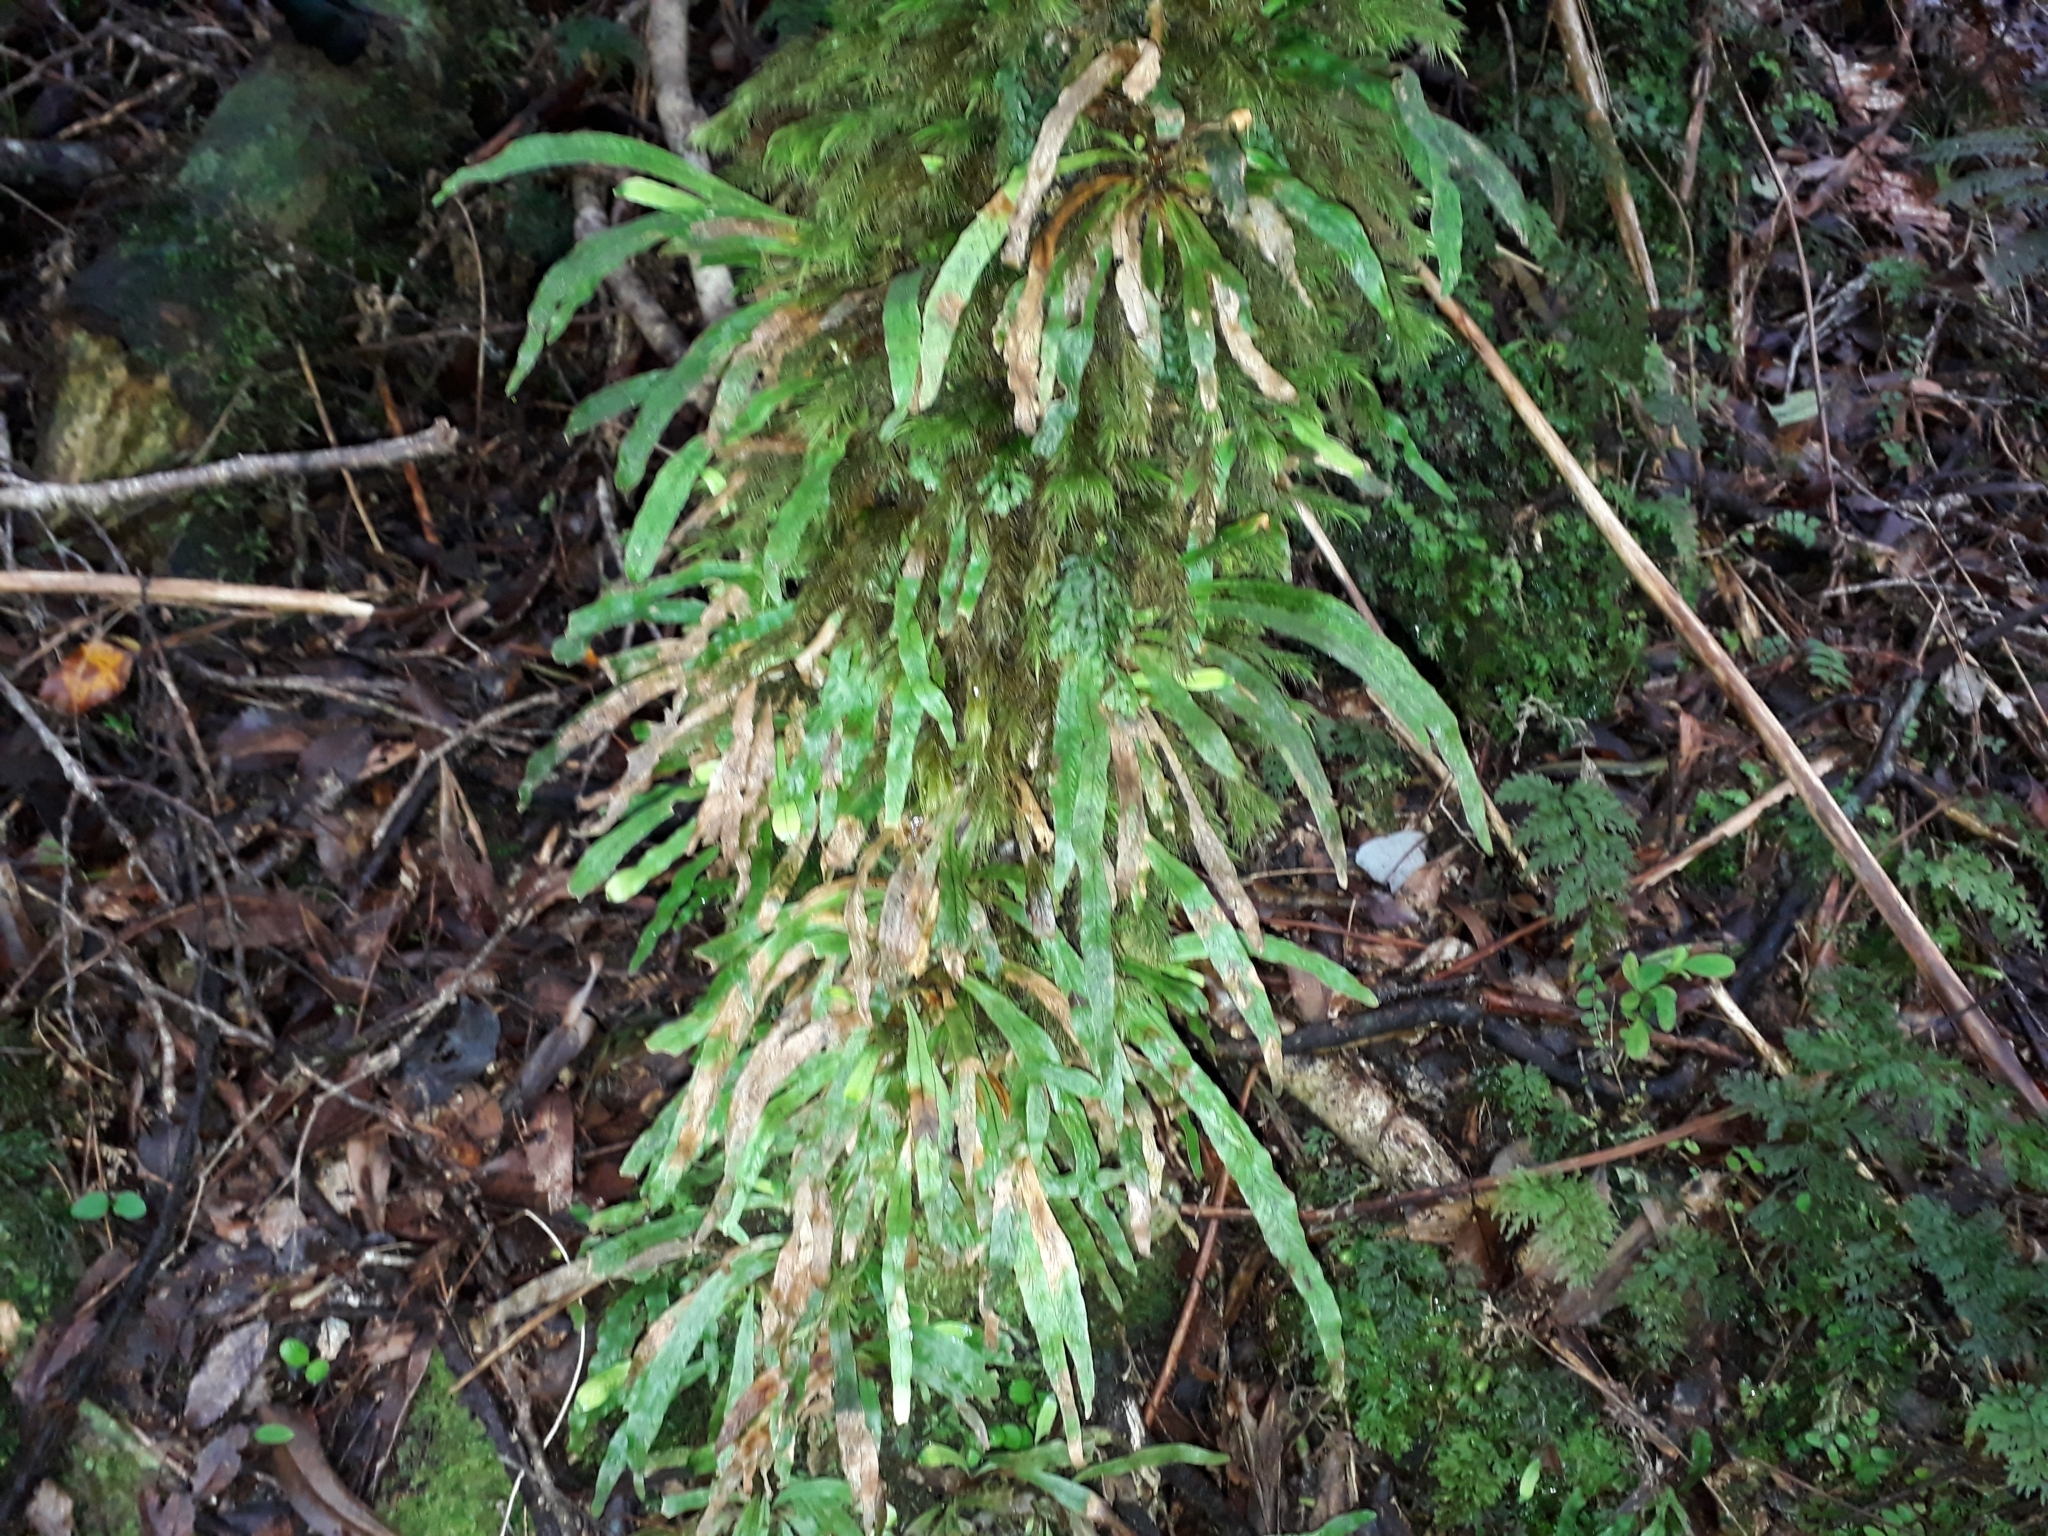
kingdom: Plantae
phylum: Tracheophyta
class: Polypodiopsida
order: Polypodiales
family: Polypodiaceae
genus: Notogrammitis
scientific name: Notogrammitis billardierei
